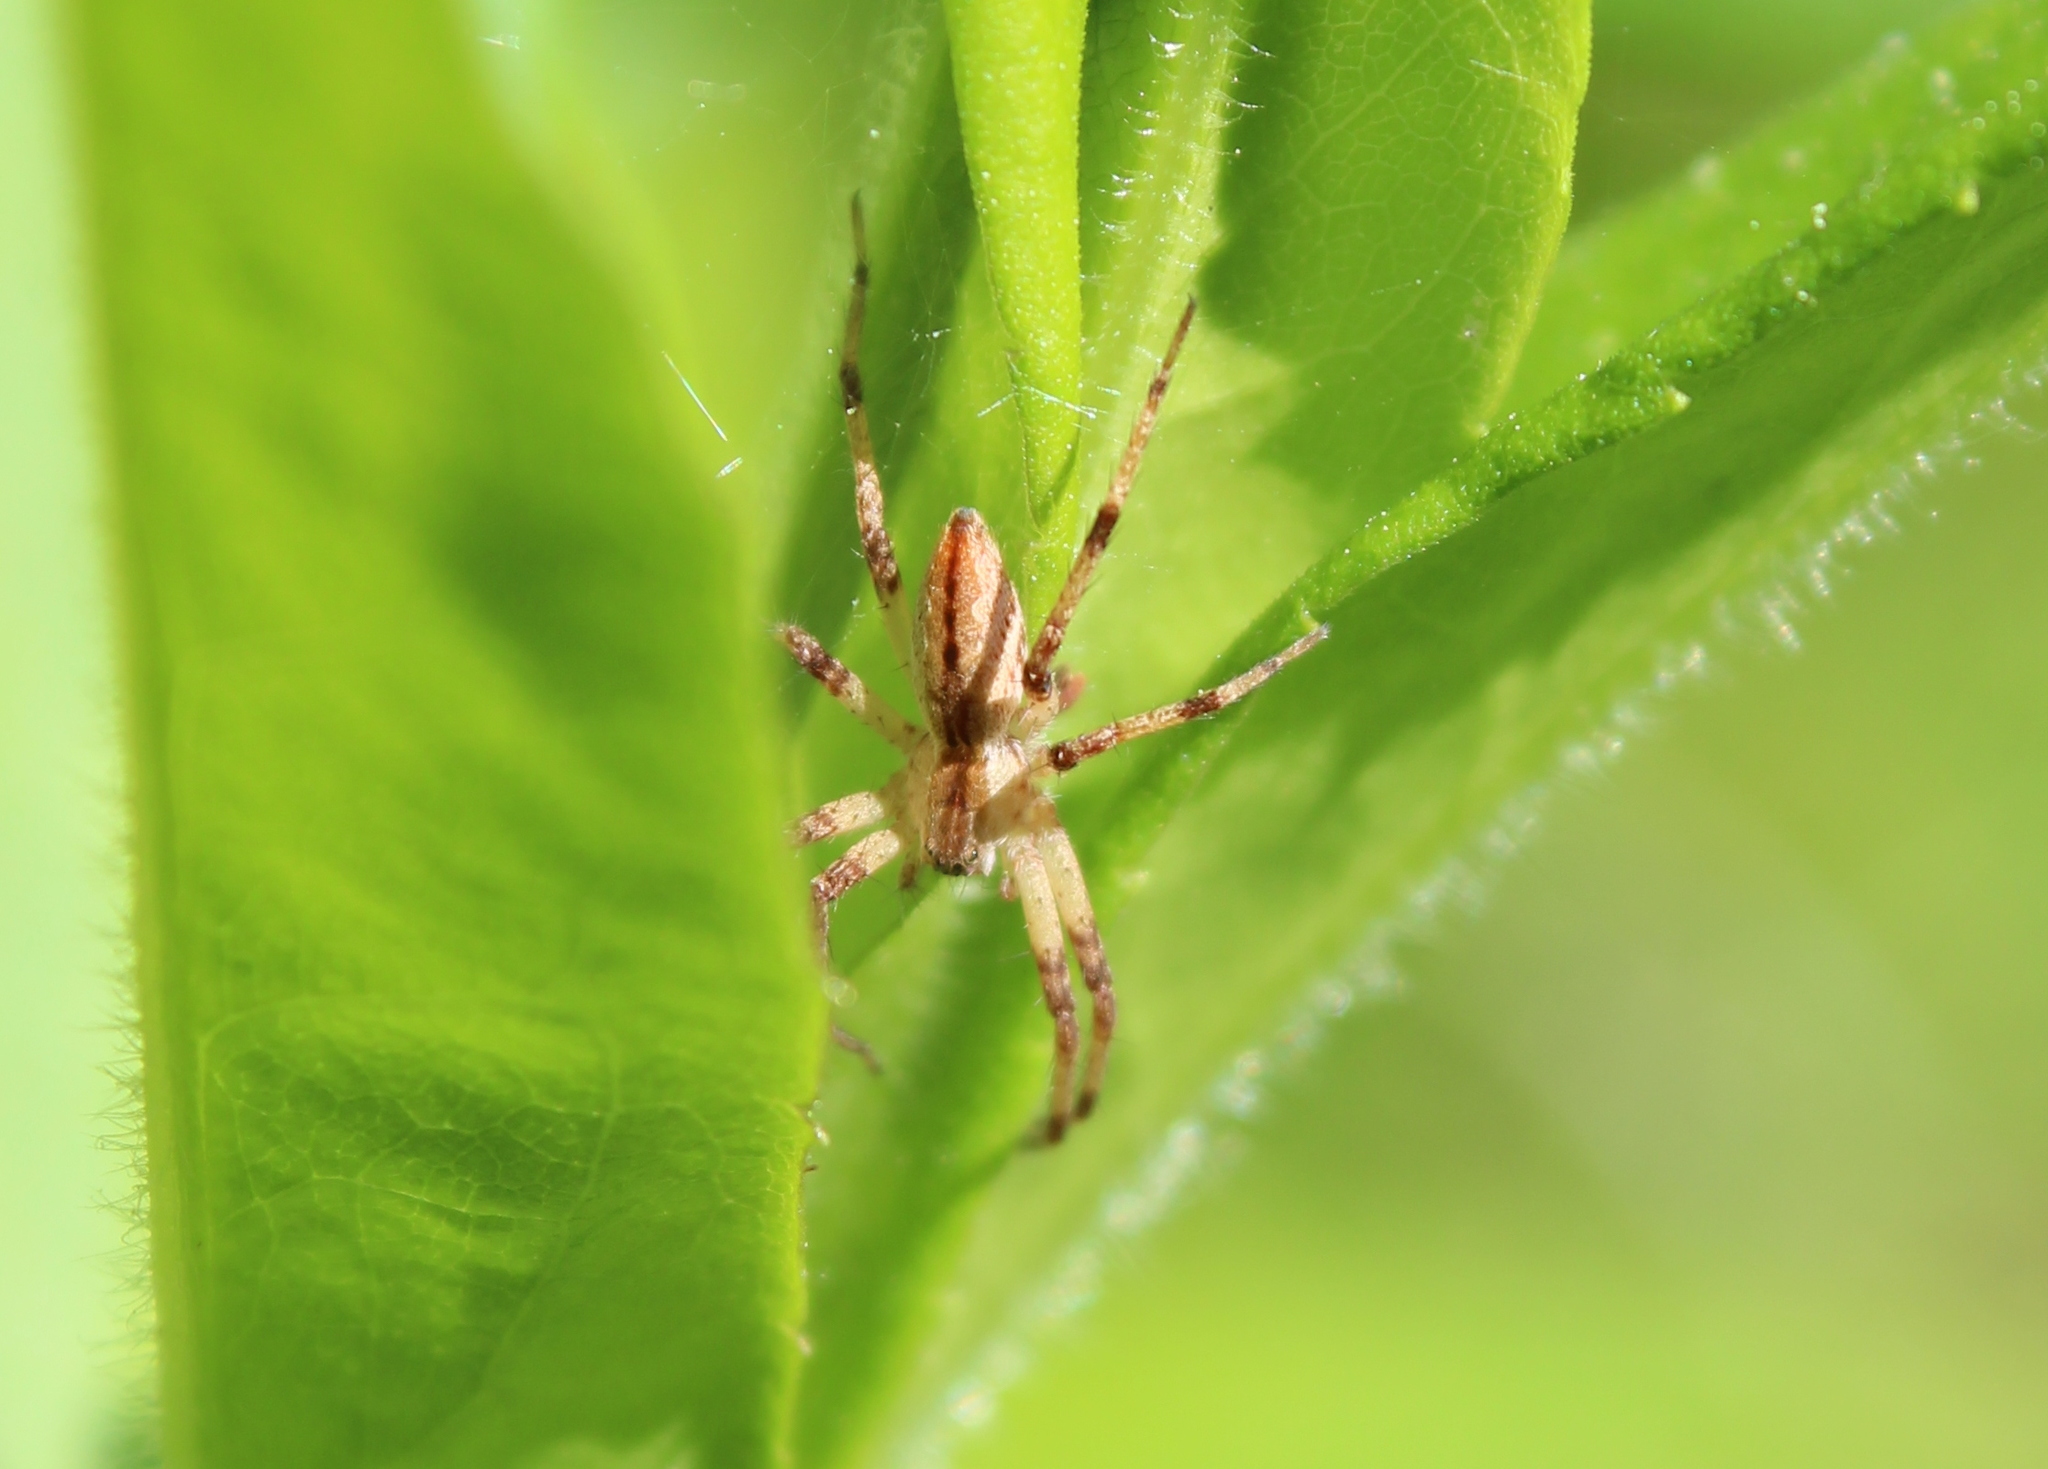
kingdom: Animalia
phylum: Arthropoda
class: Arachnida
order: Araneae
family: Pisauridae
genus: Pisaurina
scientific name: Pisaurina mira
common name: American nursery web spider
